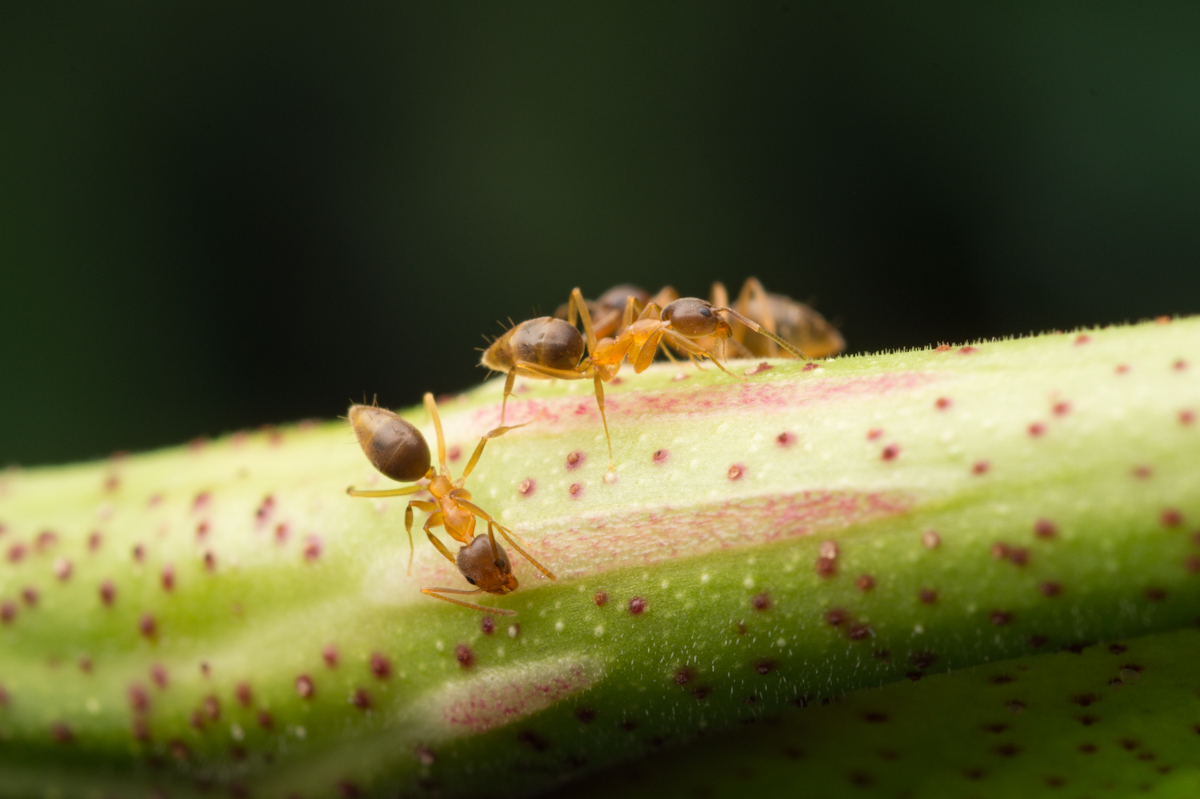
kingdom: Animalia
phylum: Arthropoda
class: Insecta
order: Hymenoptera
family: Formicidae
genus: Technomyrmex
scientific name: Technomyrmex horni
